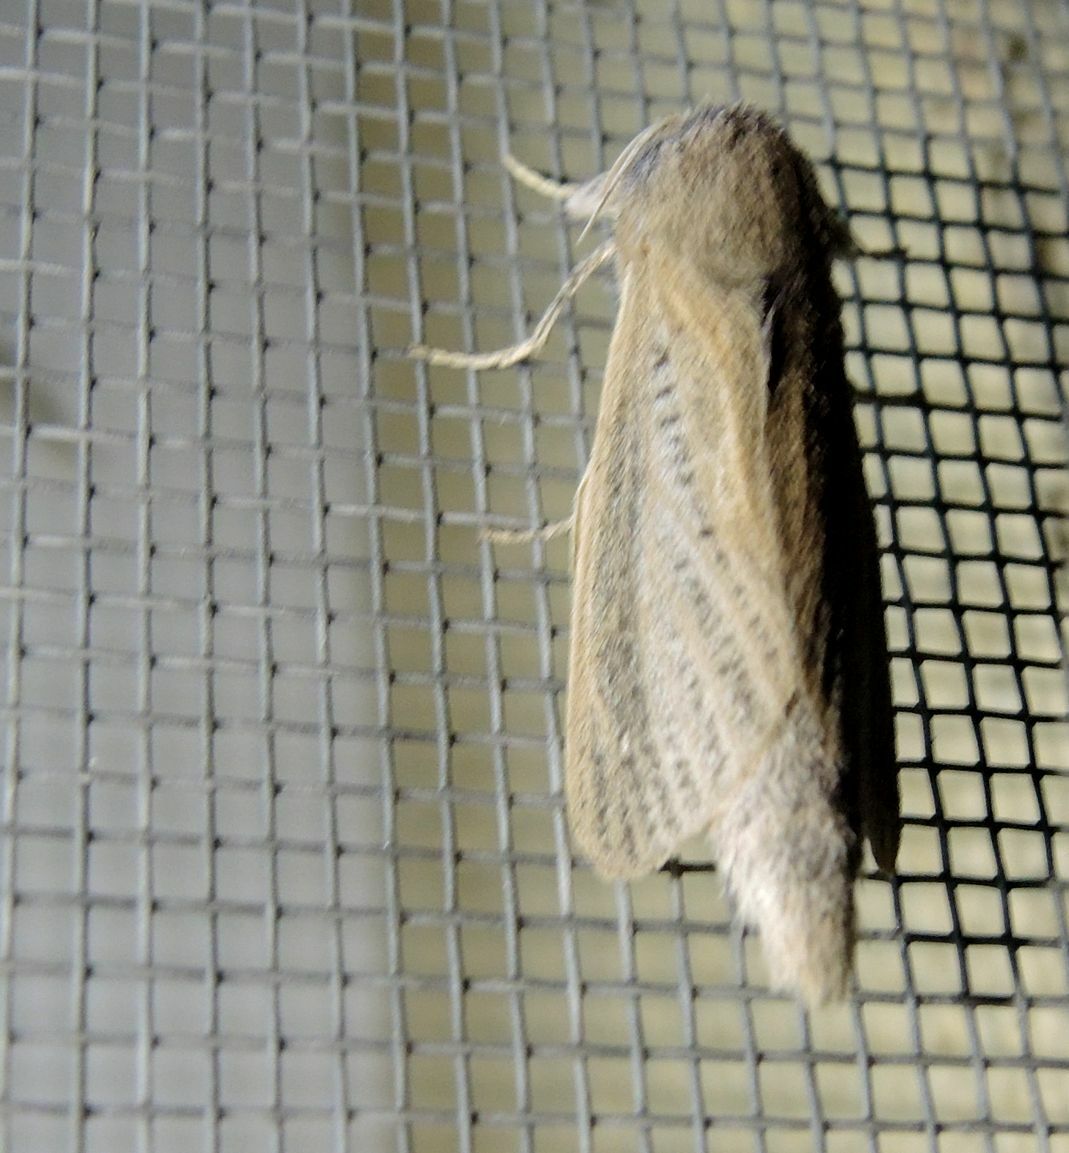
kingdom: Animalia
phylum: Arthropoda
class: Insecta
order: Lepidoptera
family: Cossidae
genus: Phragmataecia
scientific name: Phragmataecia castaneae
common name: Reed leopard
